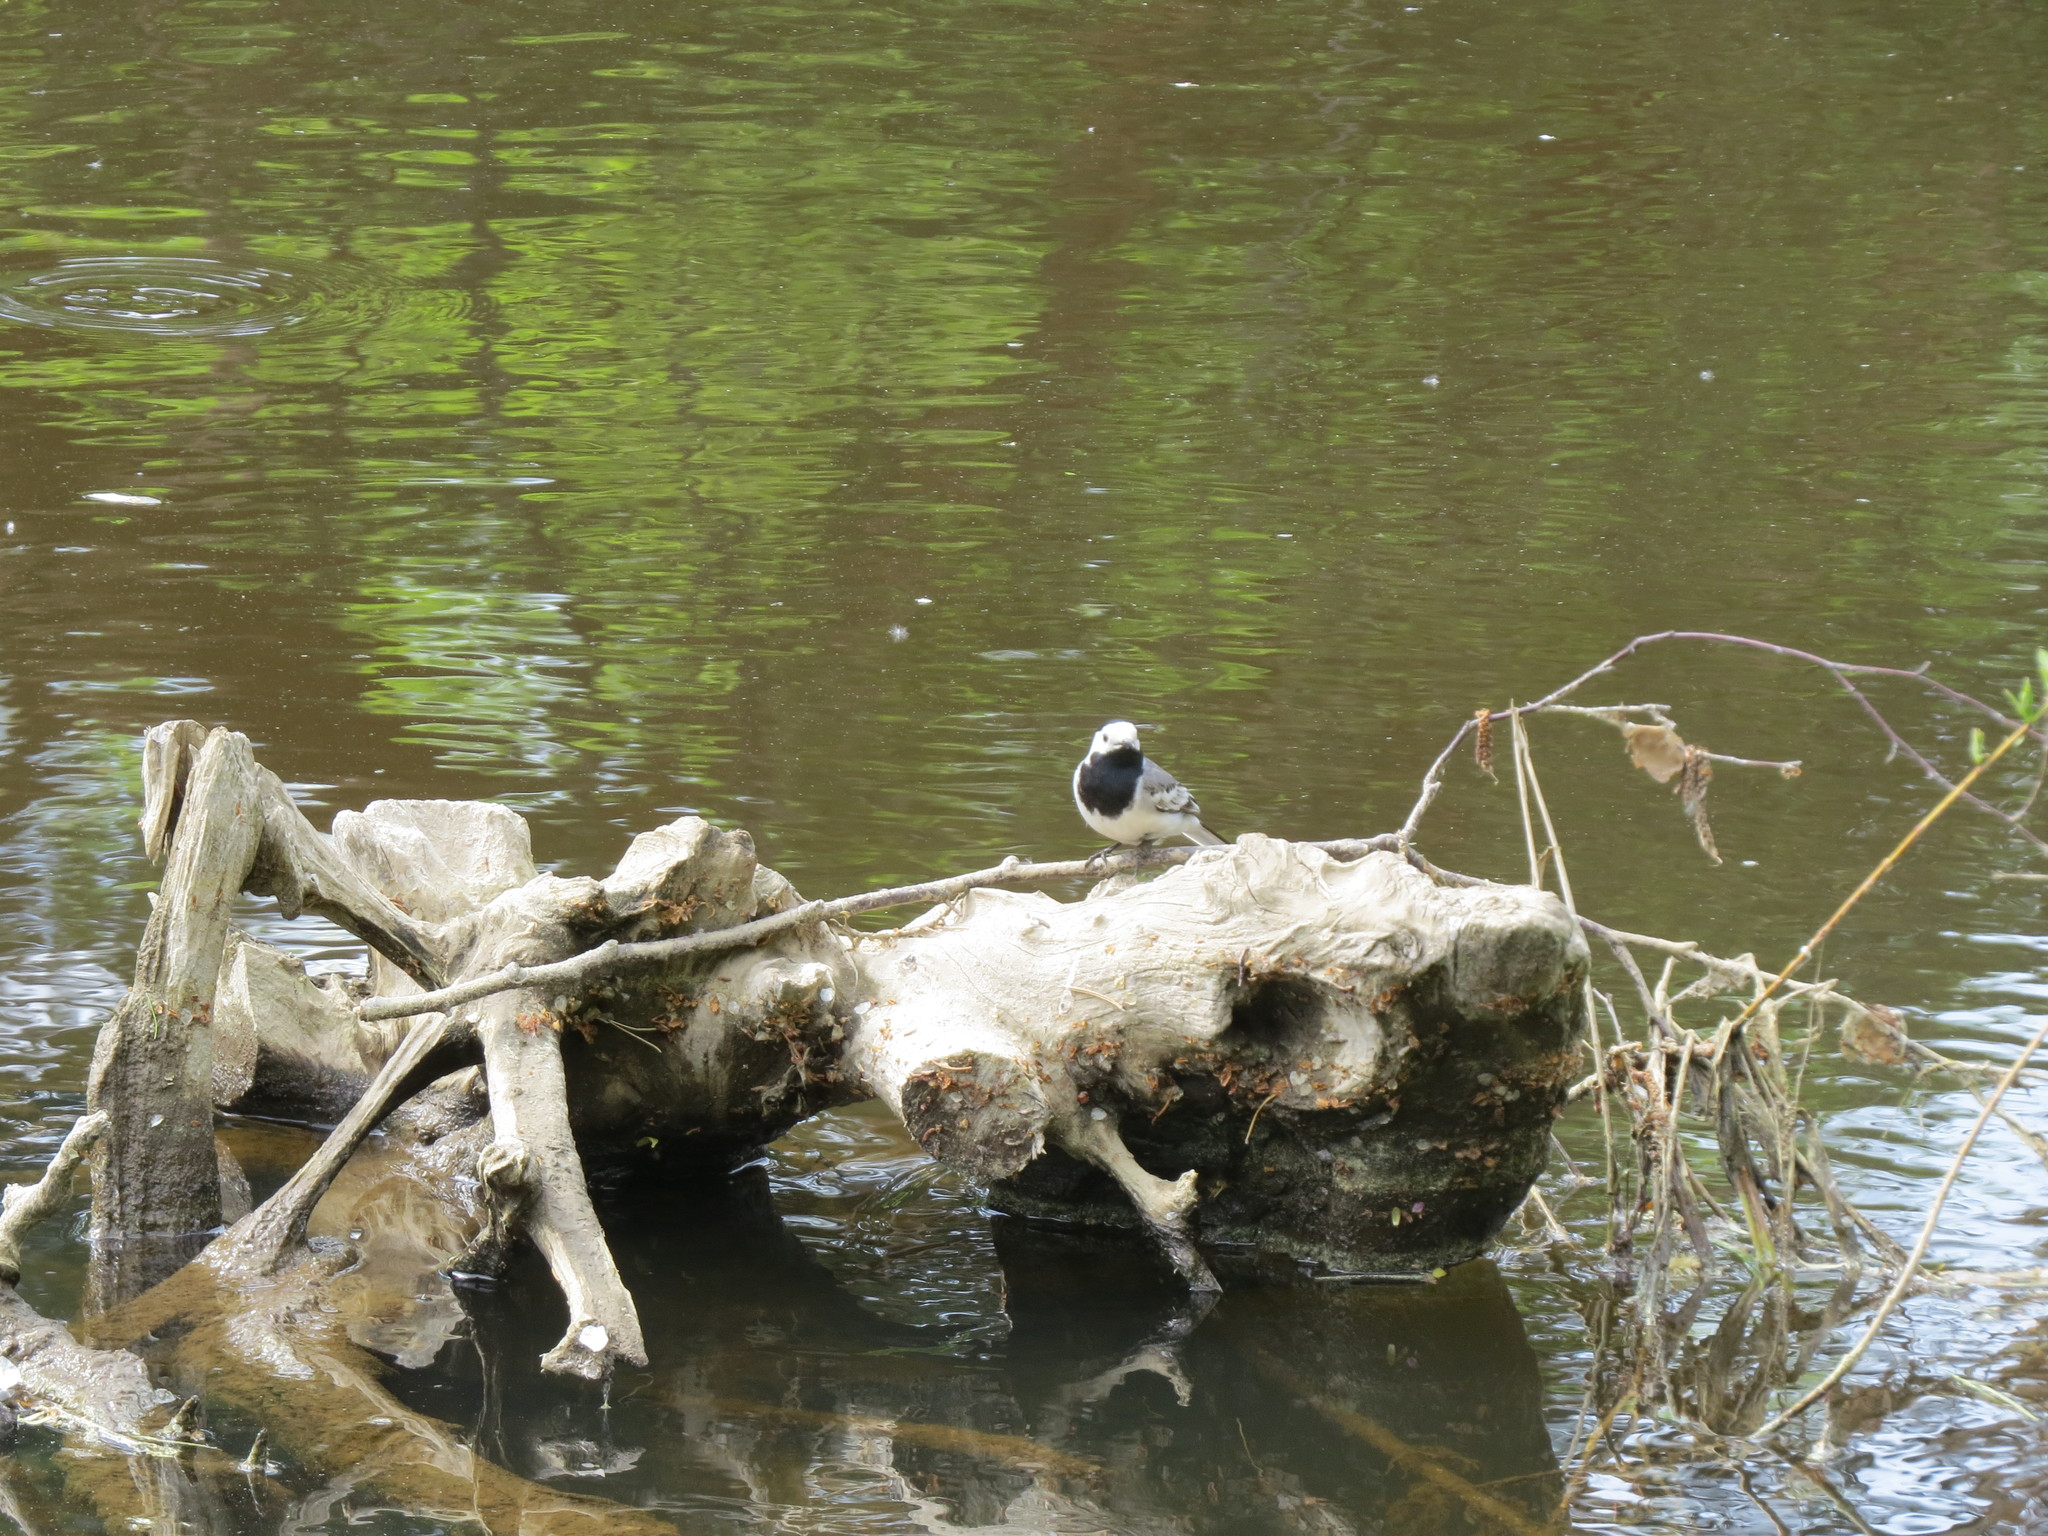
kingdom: Animalia
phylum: Chordata
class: Aves
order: Passeriformes
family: Motacillidae
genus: Motacilla
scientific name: Motacilla alba
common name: White wagtail
